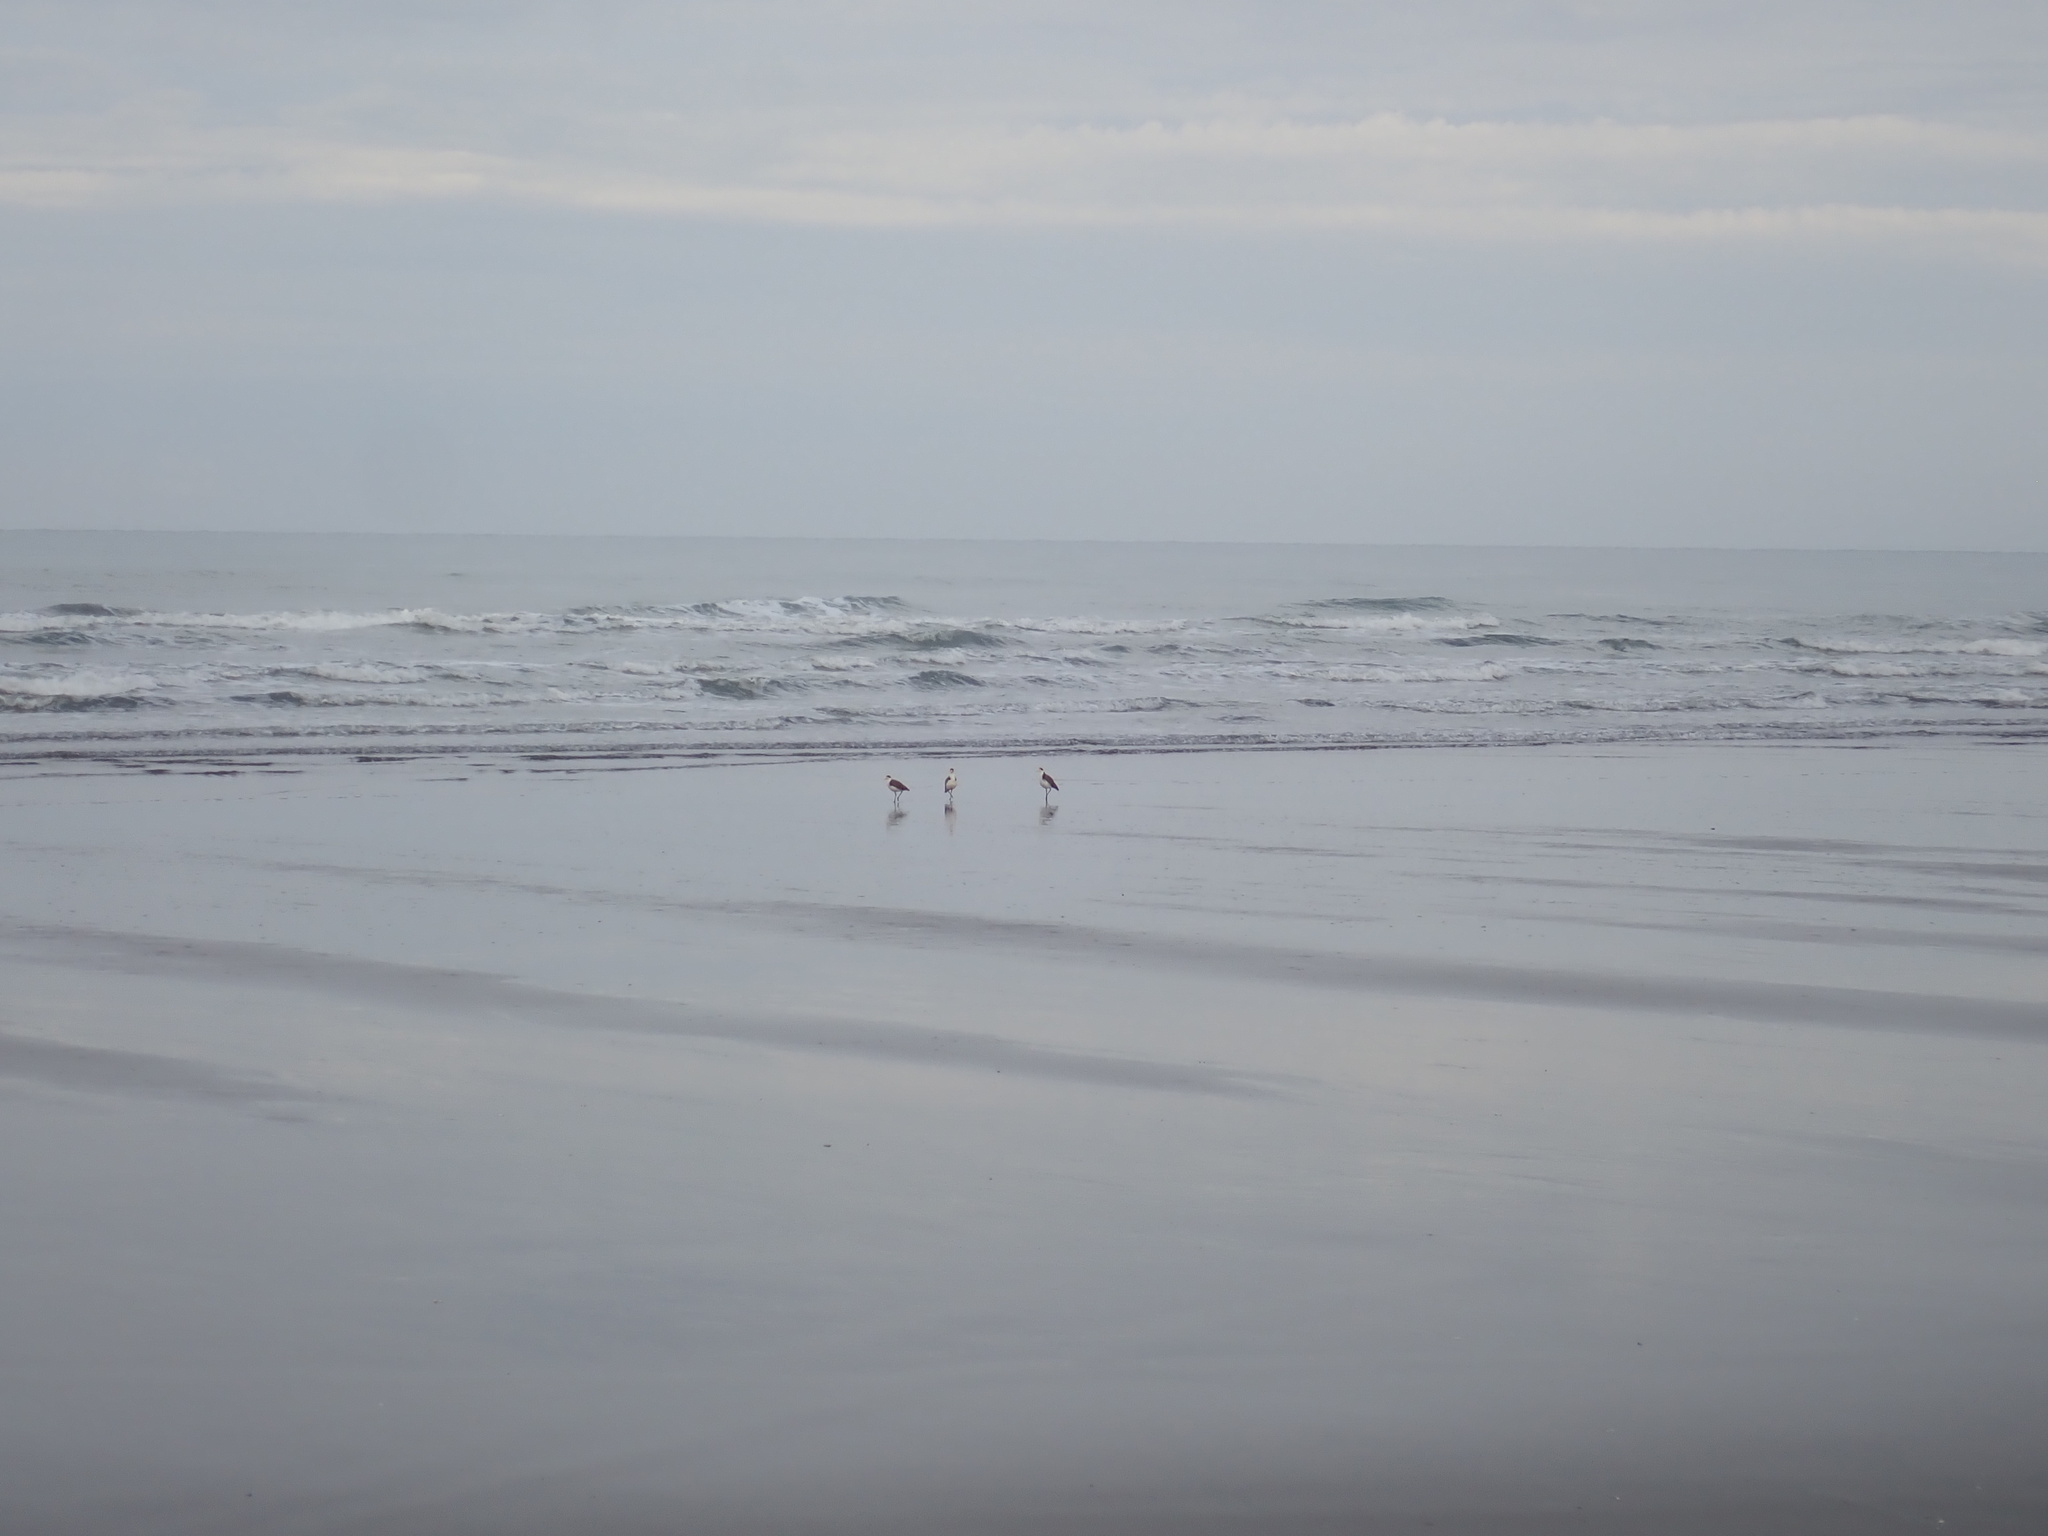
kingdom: Animalia
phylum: Chordata
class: Aves
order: Charadriiformes
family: Charadriidae
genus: Vanellus
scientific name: Vanellus miles
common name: Masked lapwing
